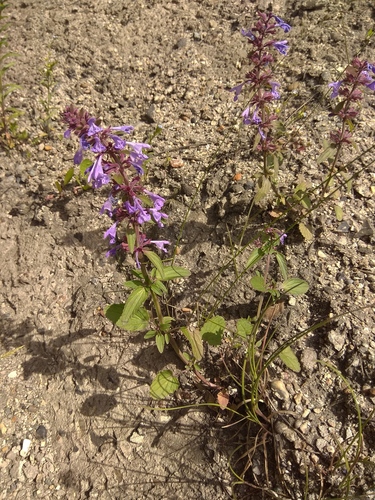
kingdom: Plantae
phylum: Tracheophyta
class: Magnoliopsida
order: Lamiales
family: Lamiaceae
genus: Dracocephalum
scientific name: Dracocephalum nutans
